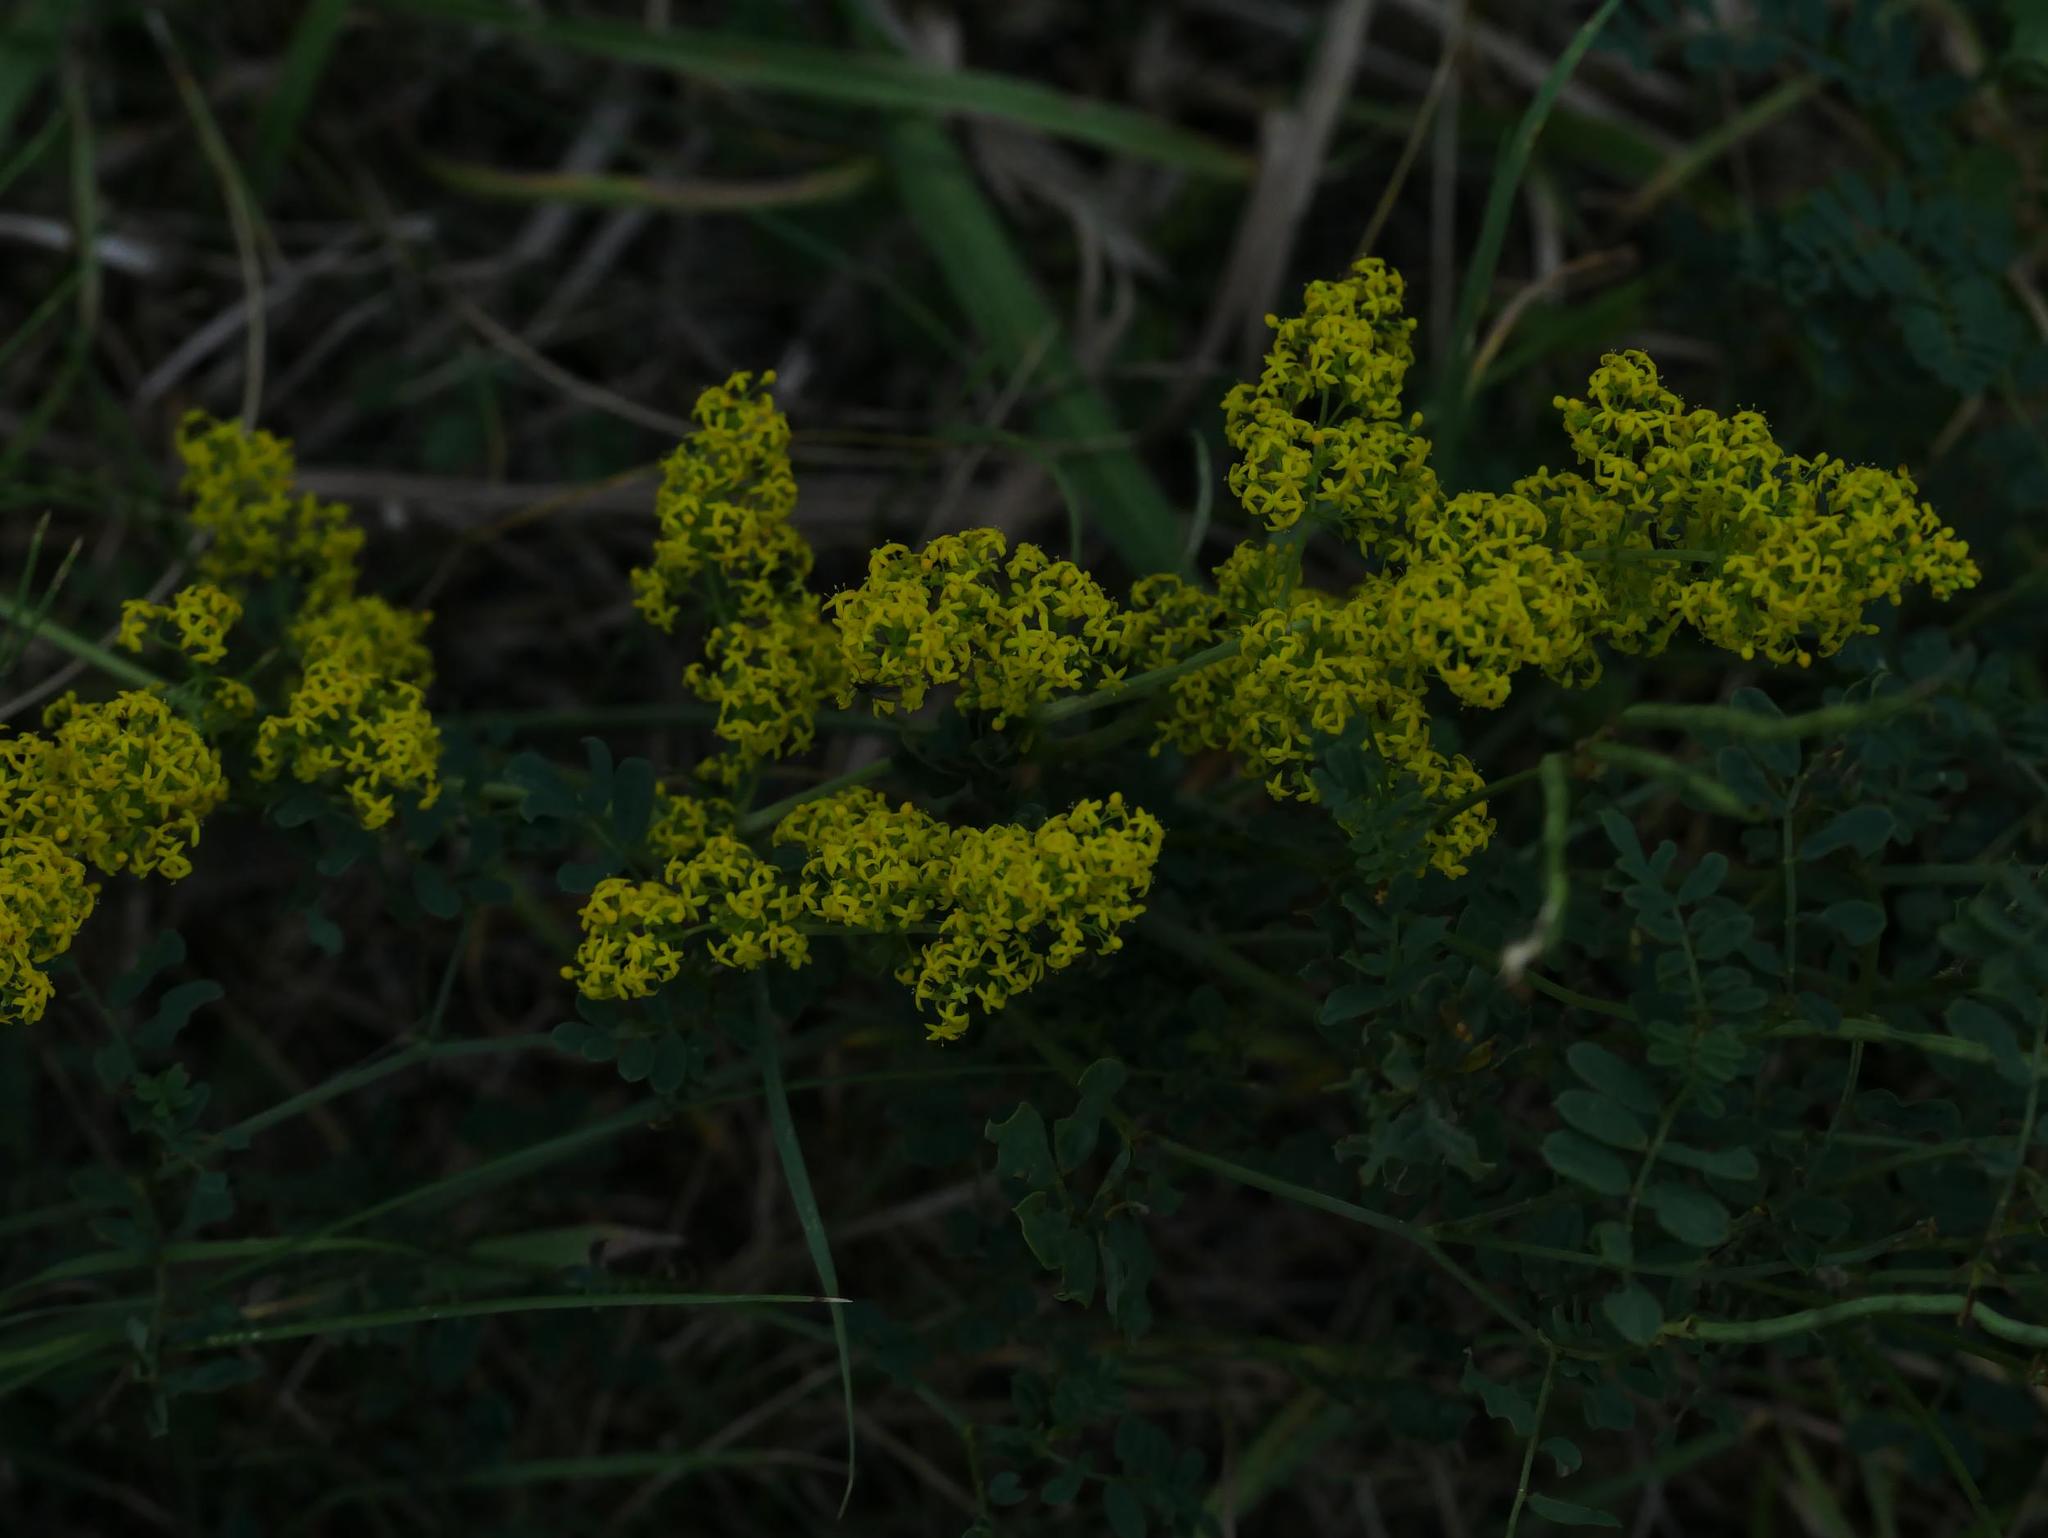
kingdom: Plantae
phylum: Tracheophyta
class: Magnoliopsida
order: Gentianales
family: Rubiaceae
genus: Galium
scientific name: Galium verum
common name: Lady's bedstraw
